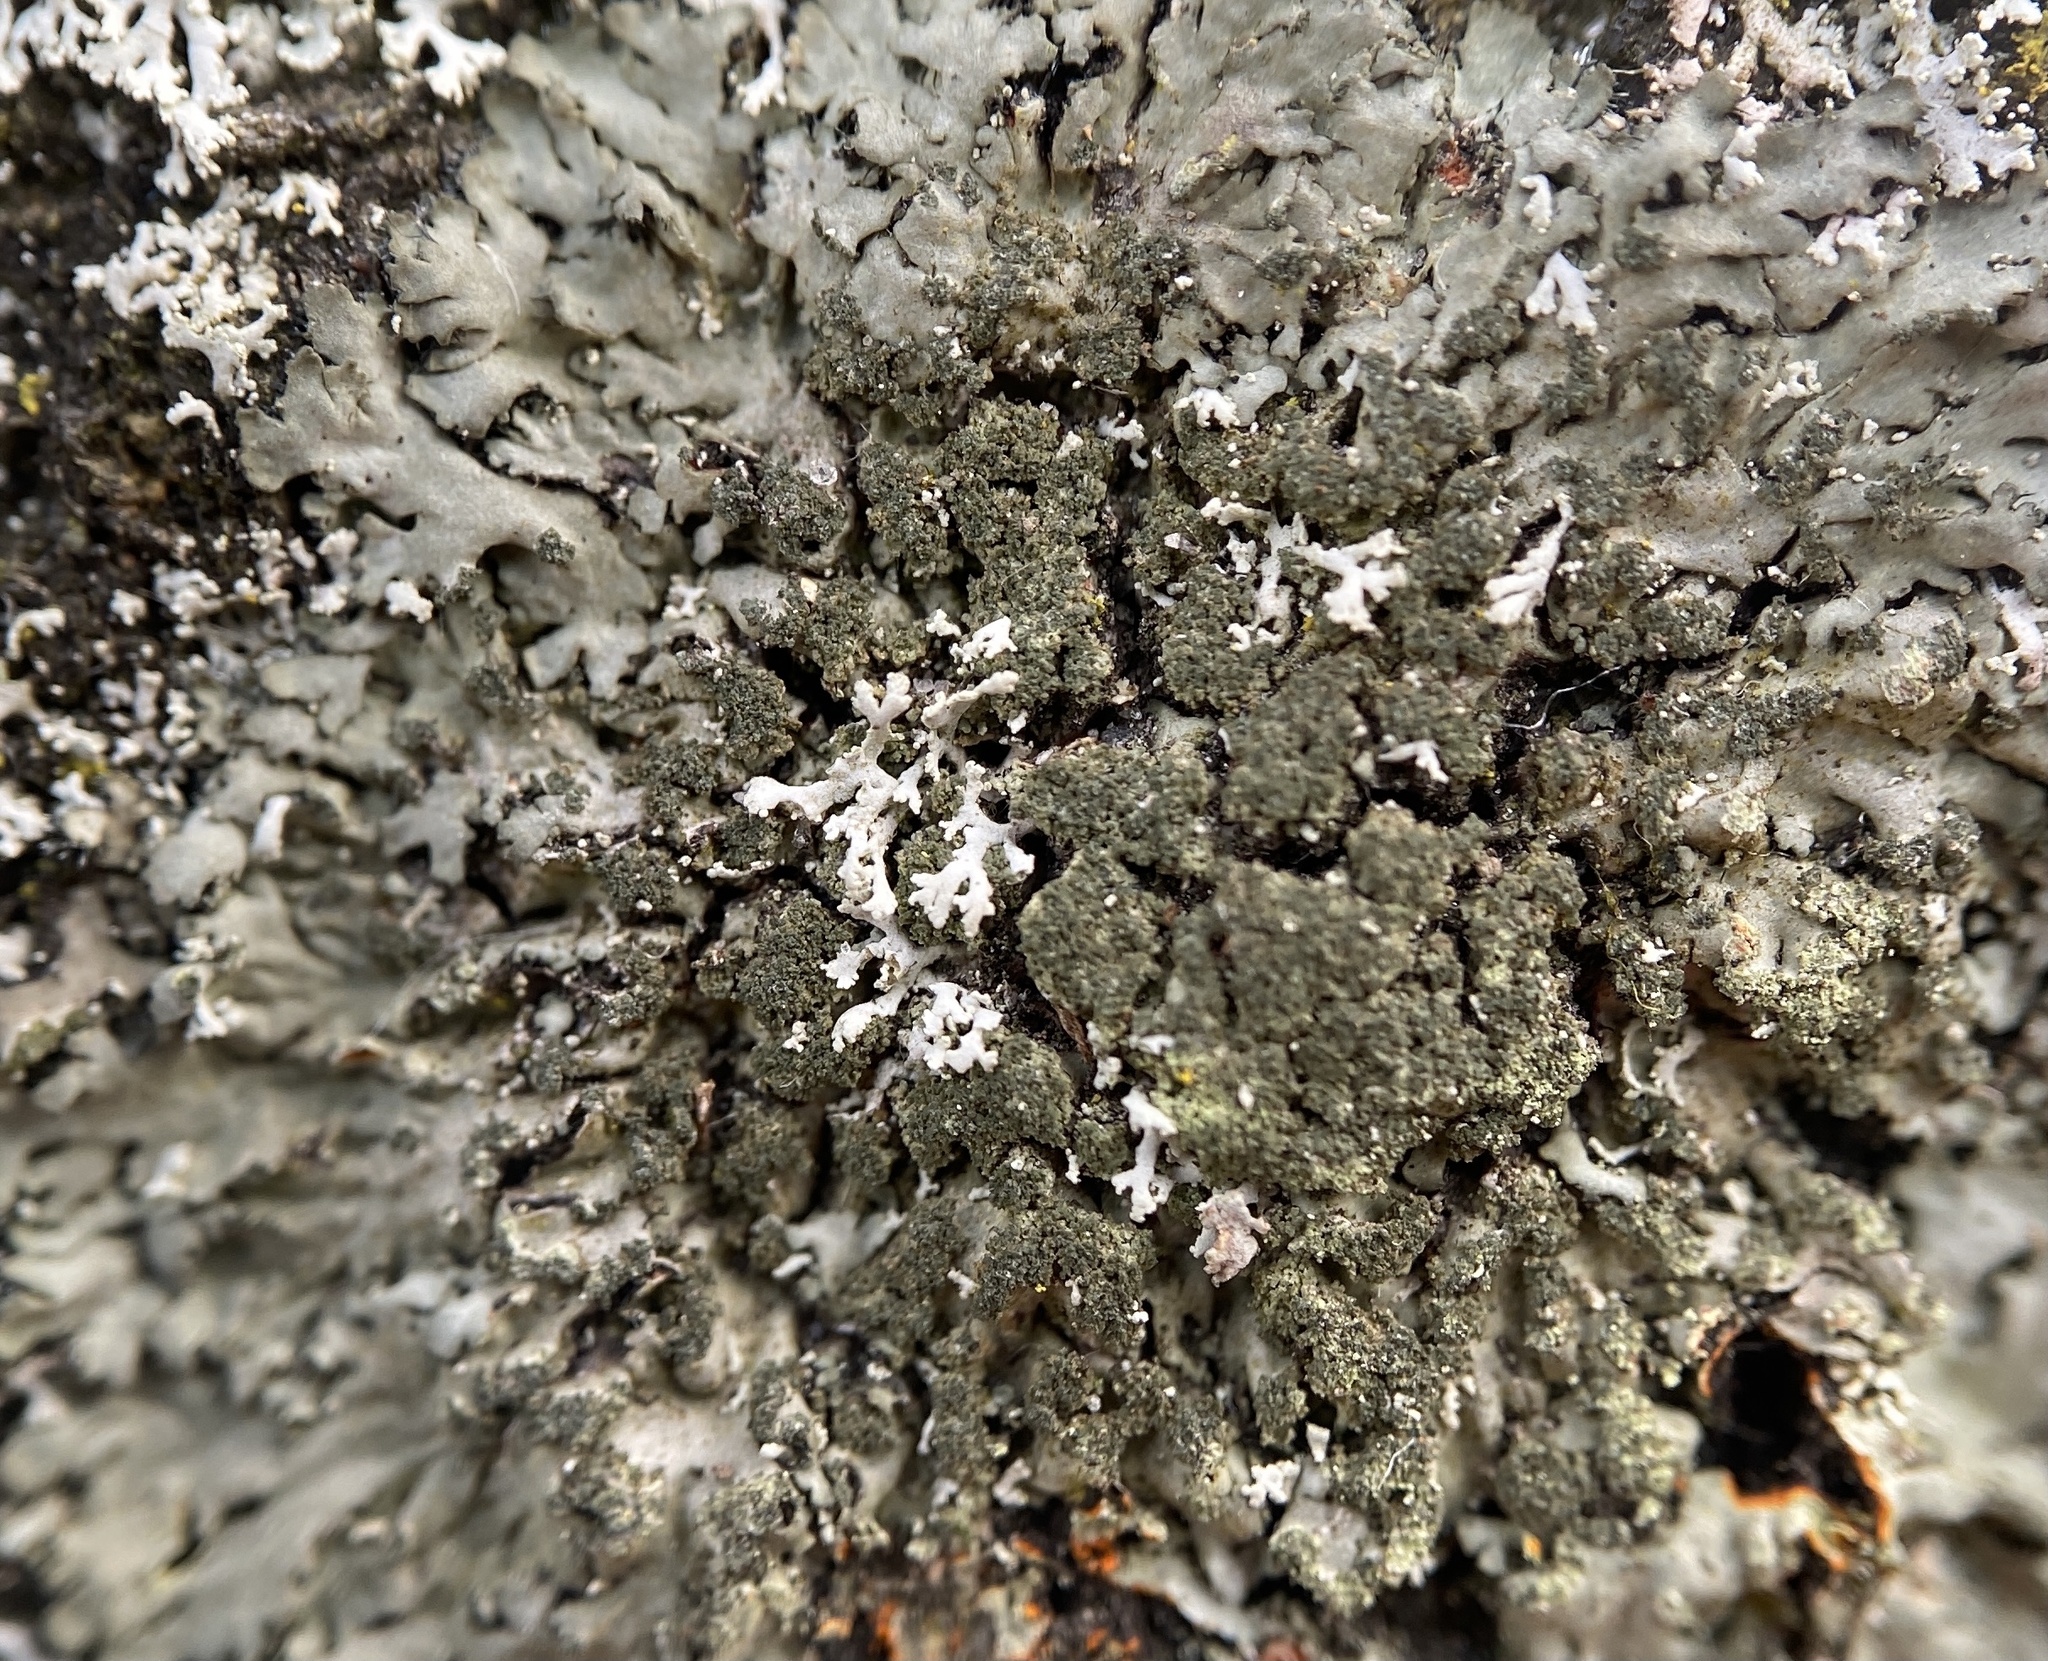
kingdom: Fungi
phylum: Ascomycota
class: Lecanoromycetes
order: Caliciales
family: Physciaceae
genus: Phaeophyscia
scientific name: Phaeophyscia rubropulchra
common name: Orange-cored shadow lichen
